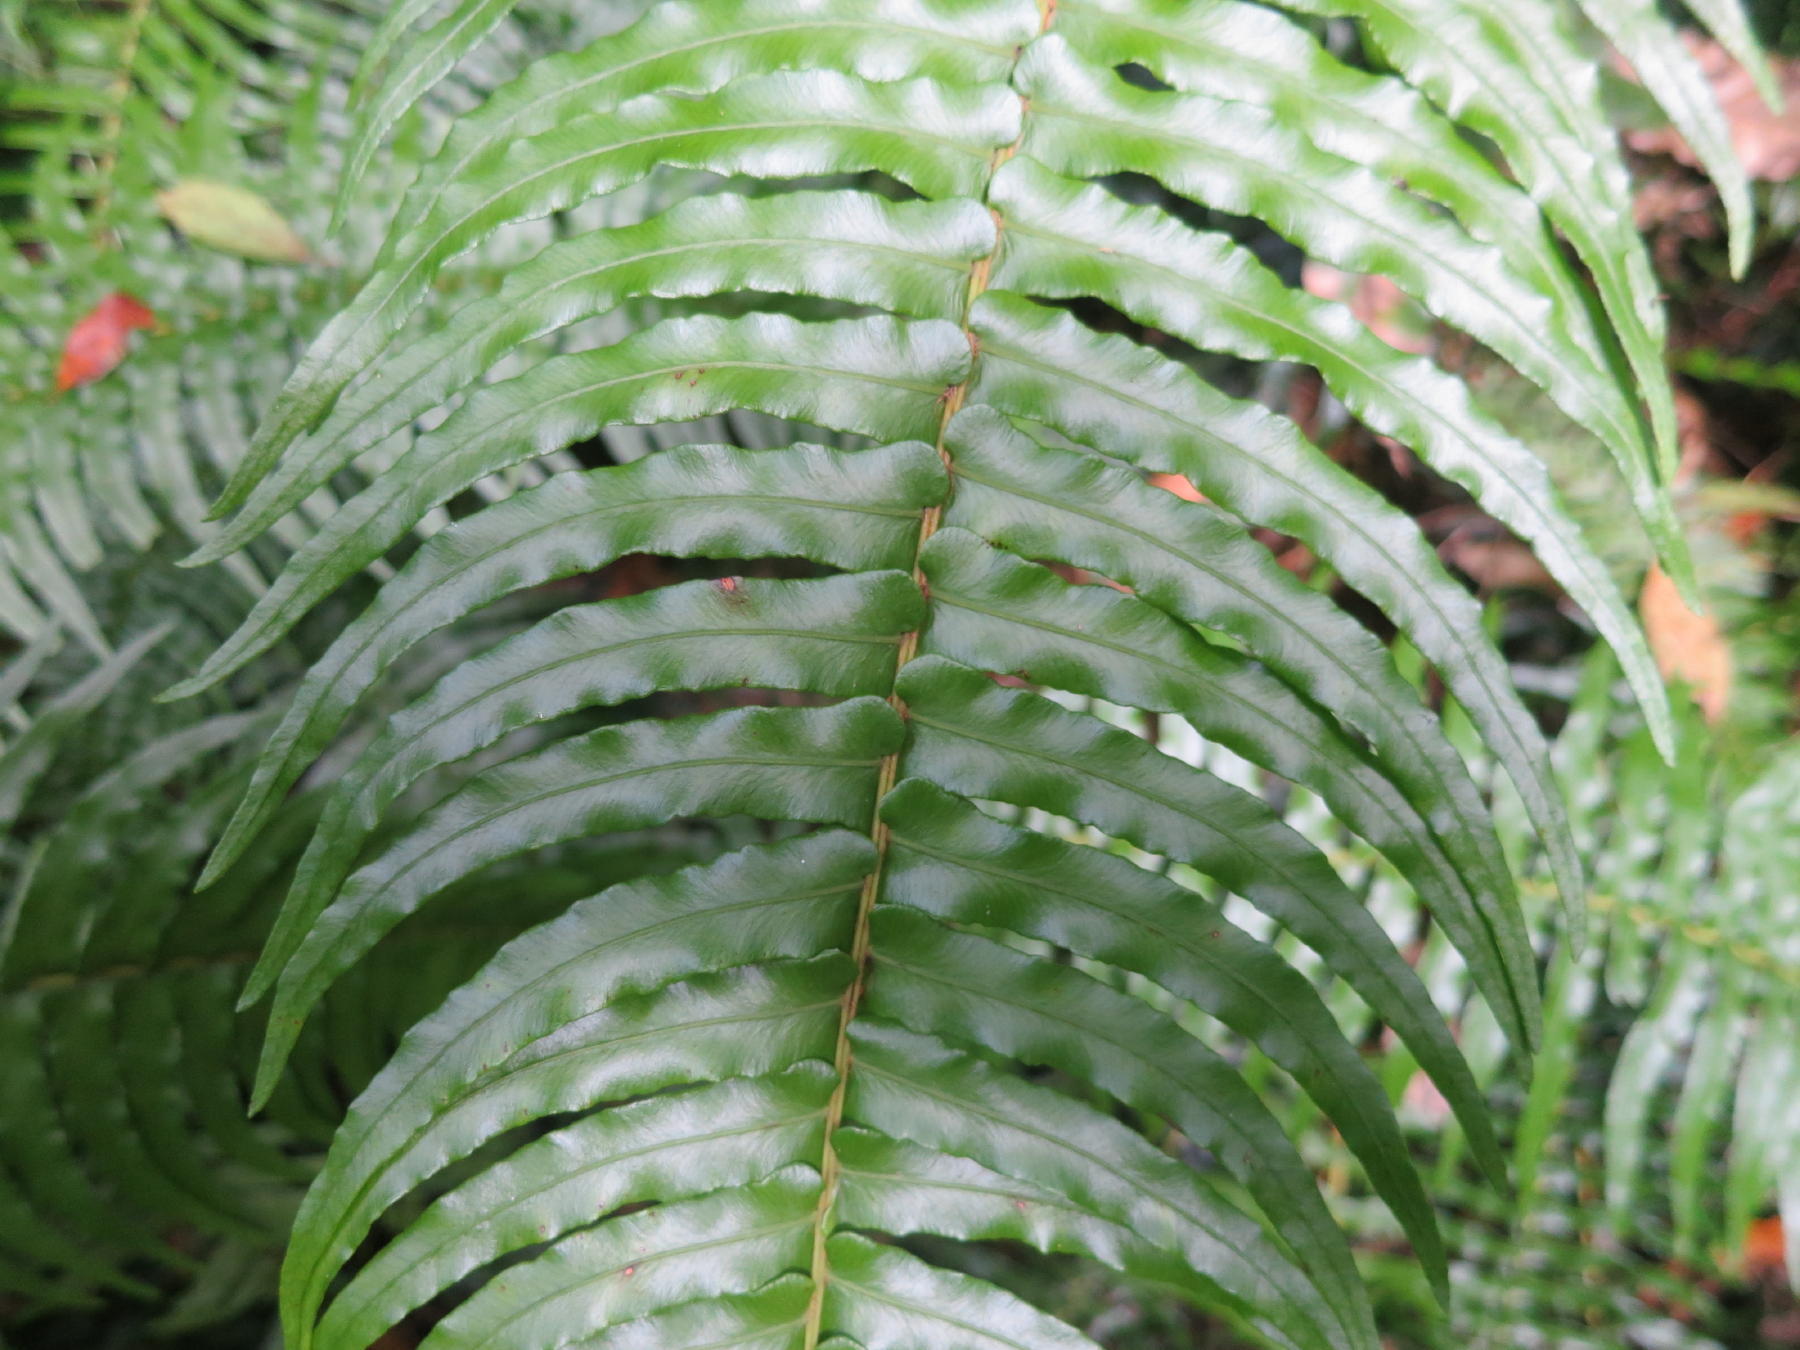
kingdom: Plantae
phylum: Tracheophyta
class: Polypodiopsida
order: Polypodiales
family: Blechnaceae
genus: Lomaridium
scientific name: Lomaridium attenuatum
